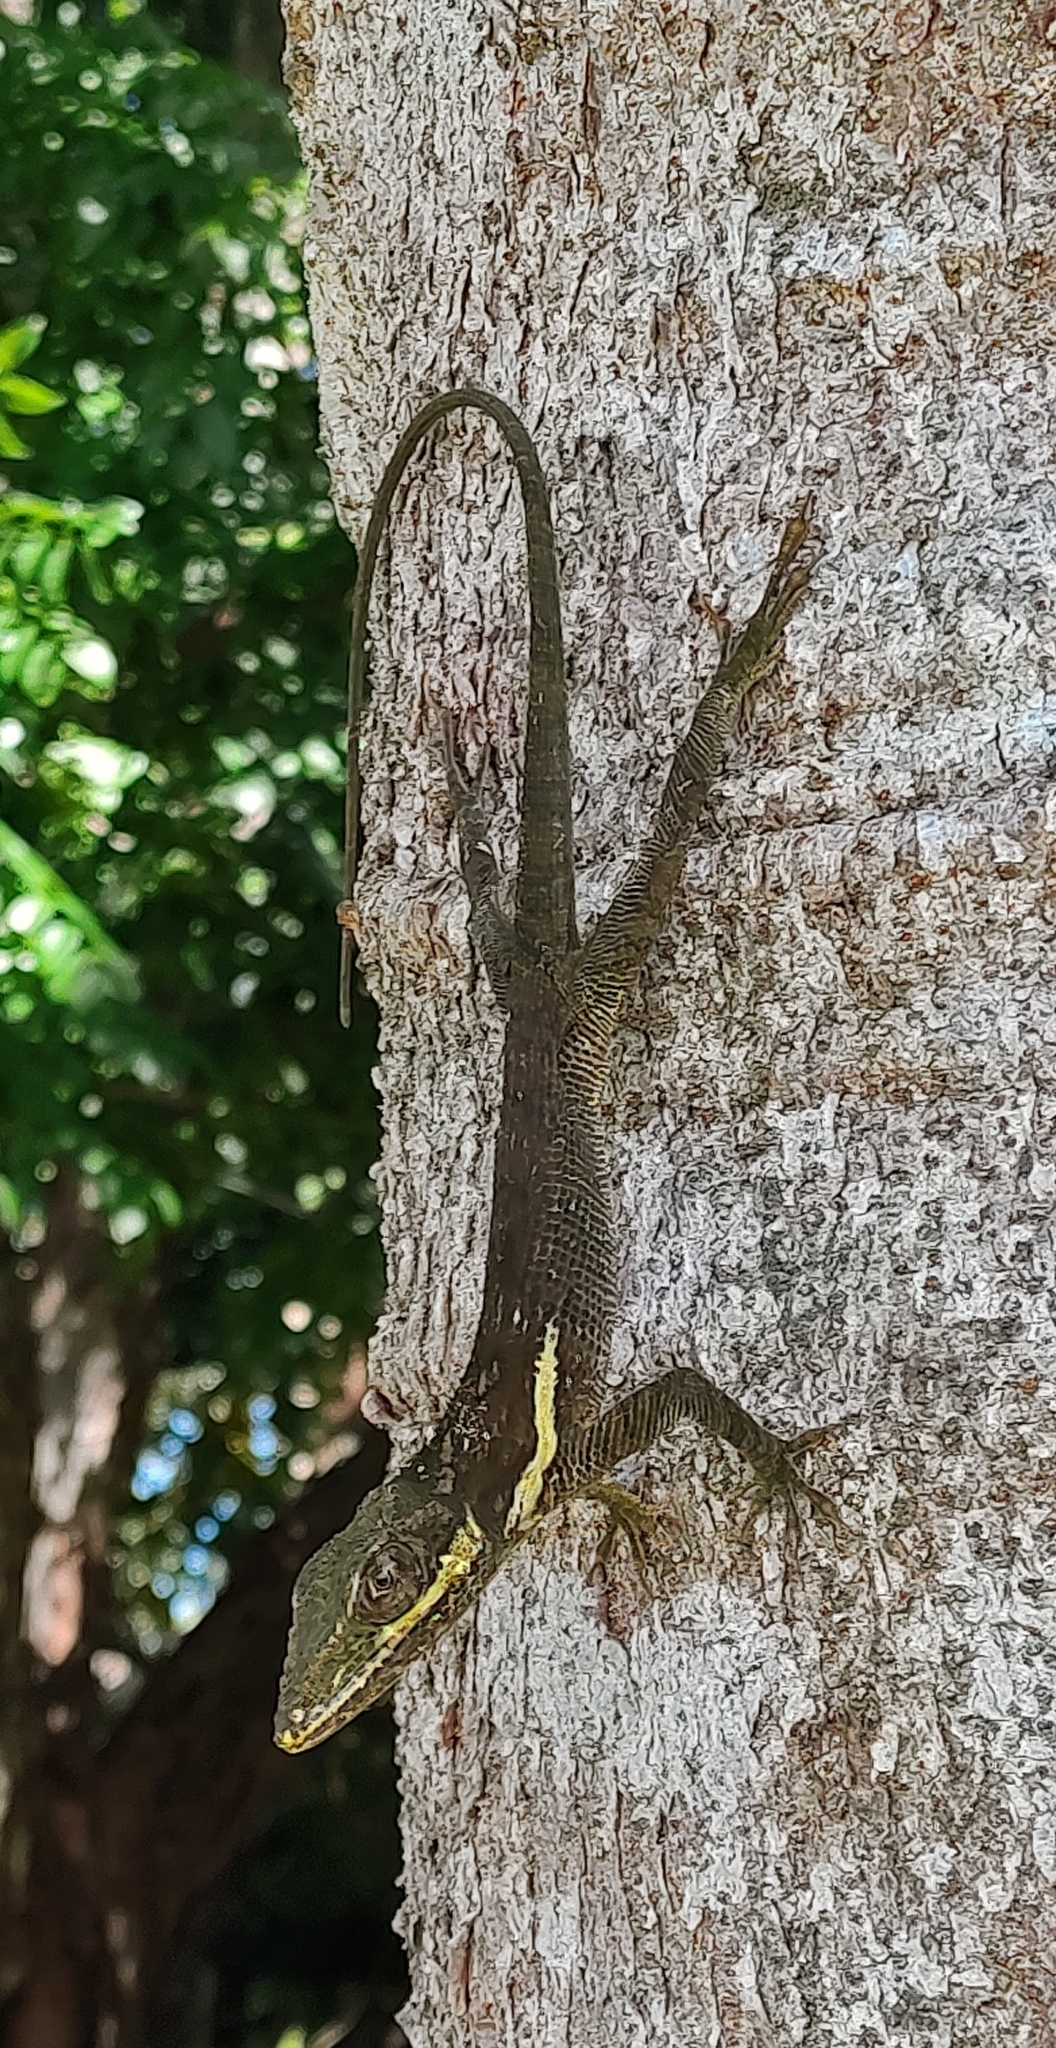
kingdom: Animalia
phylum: Chordata
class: Squamata
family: Dactyloidae
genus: Anolis
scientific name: Anolis equestris
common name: Knight anole
